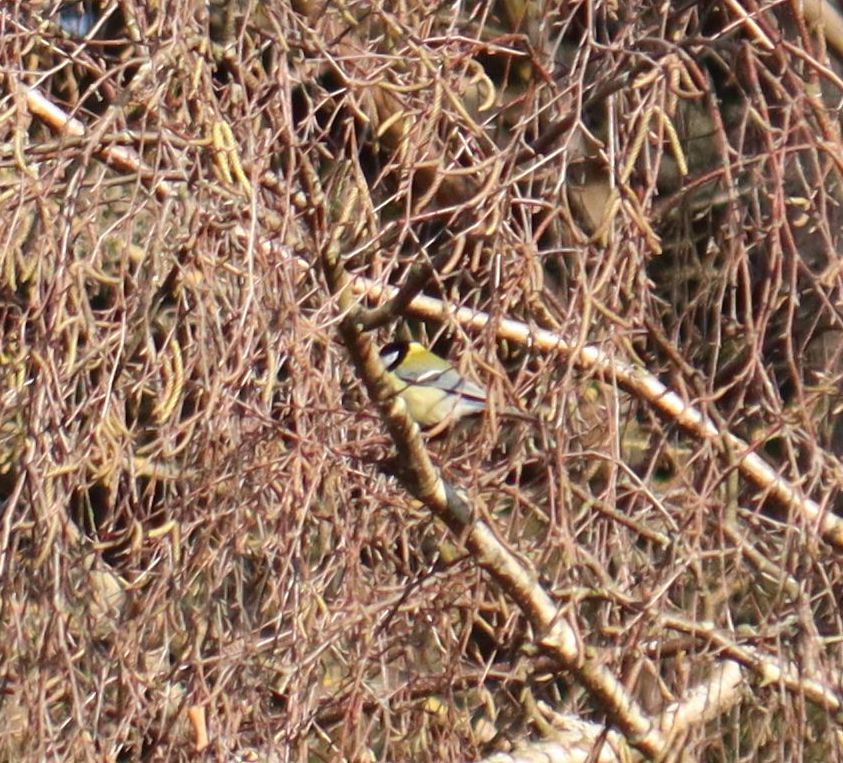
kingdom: Animalia
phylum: Chordata
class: Aves
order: Passeriformes
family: Paridae
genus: Parus
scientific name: Parus major
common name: Great tit
